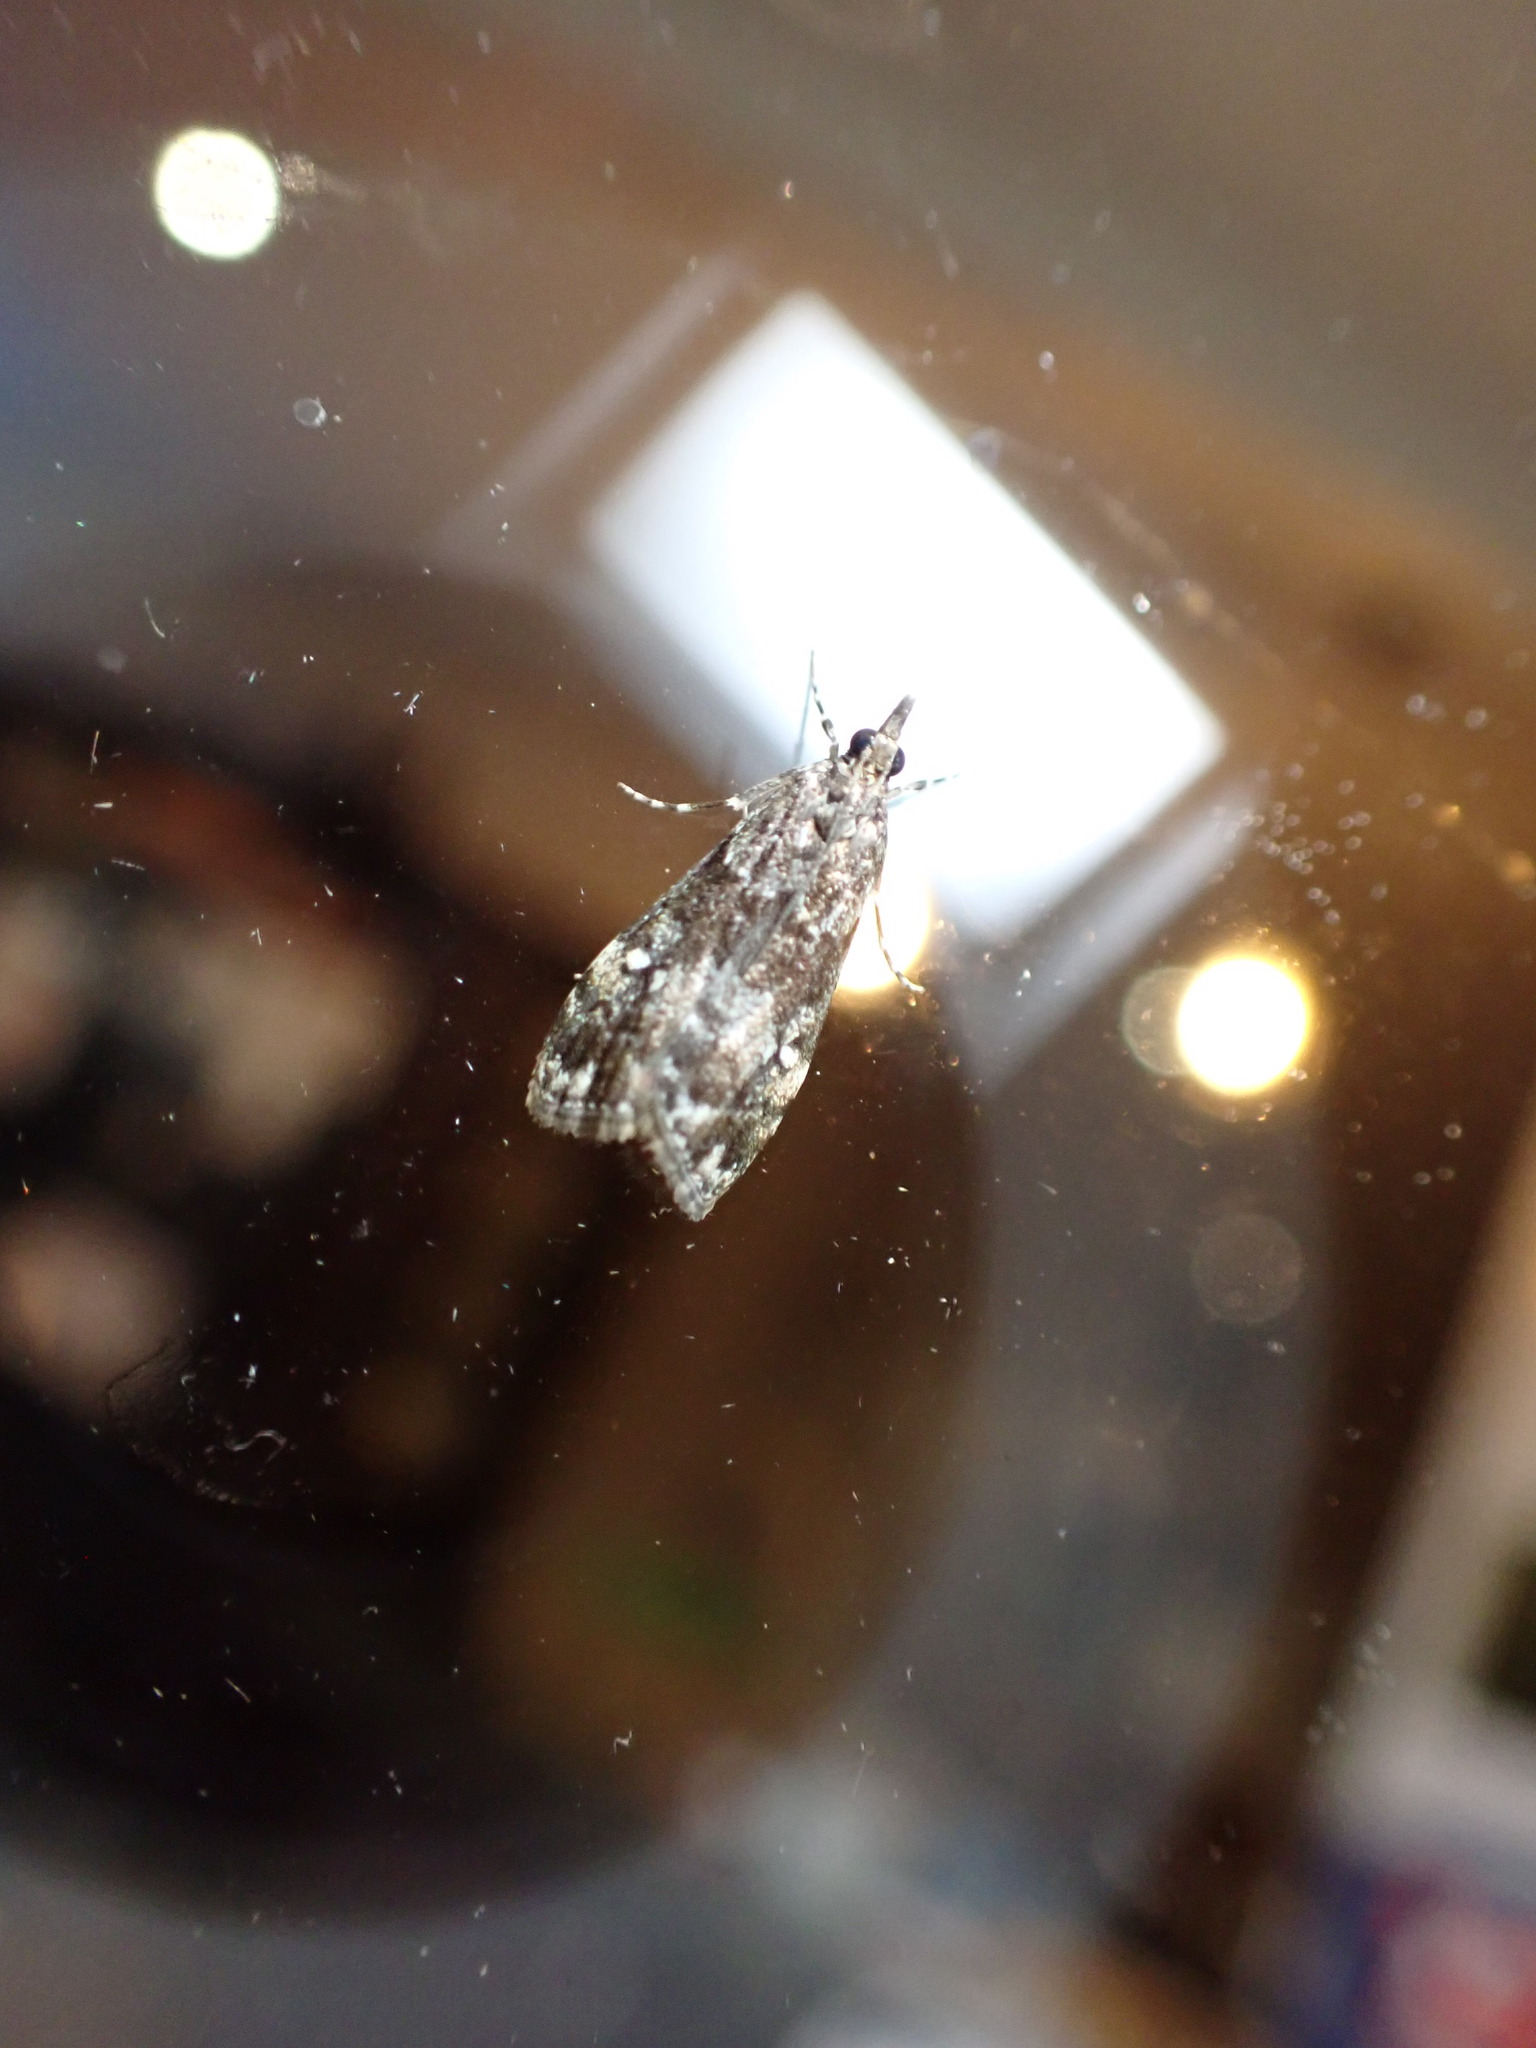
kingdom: Animalia
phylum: Arthropoda
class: Insecta
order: Lepidoptera
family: Crambidae
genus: Eudonia
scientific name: Eudonia dinodes
